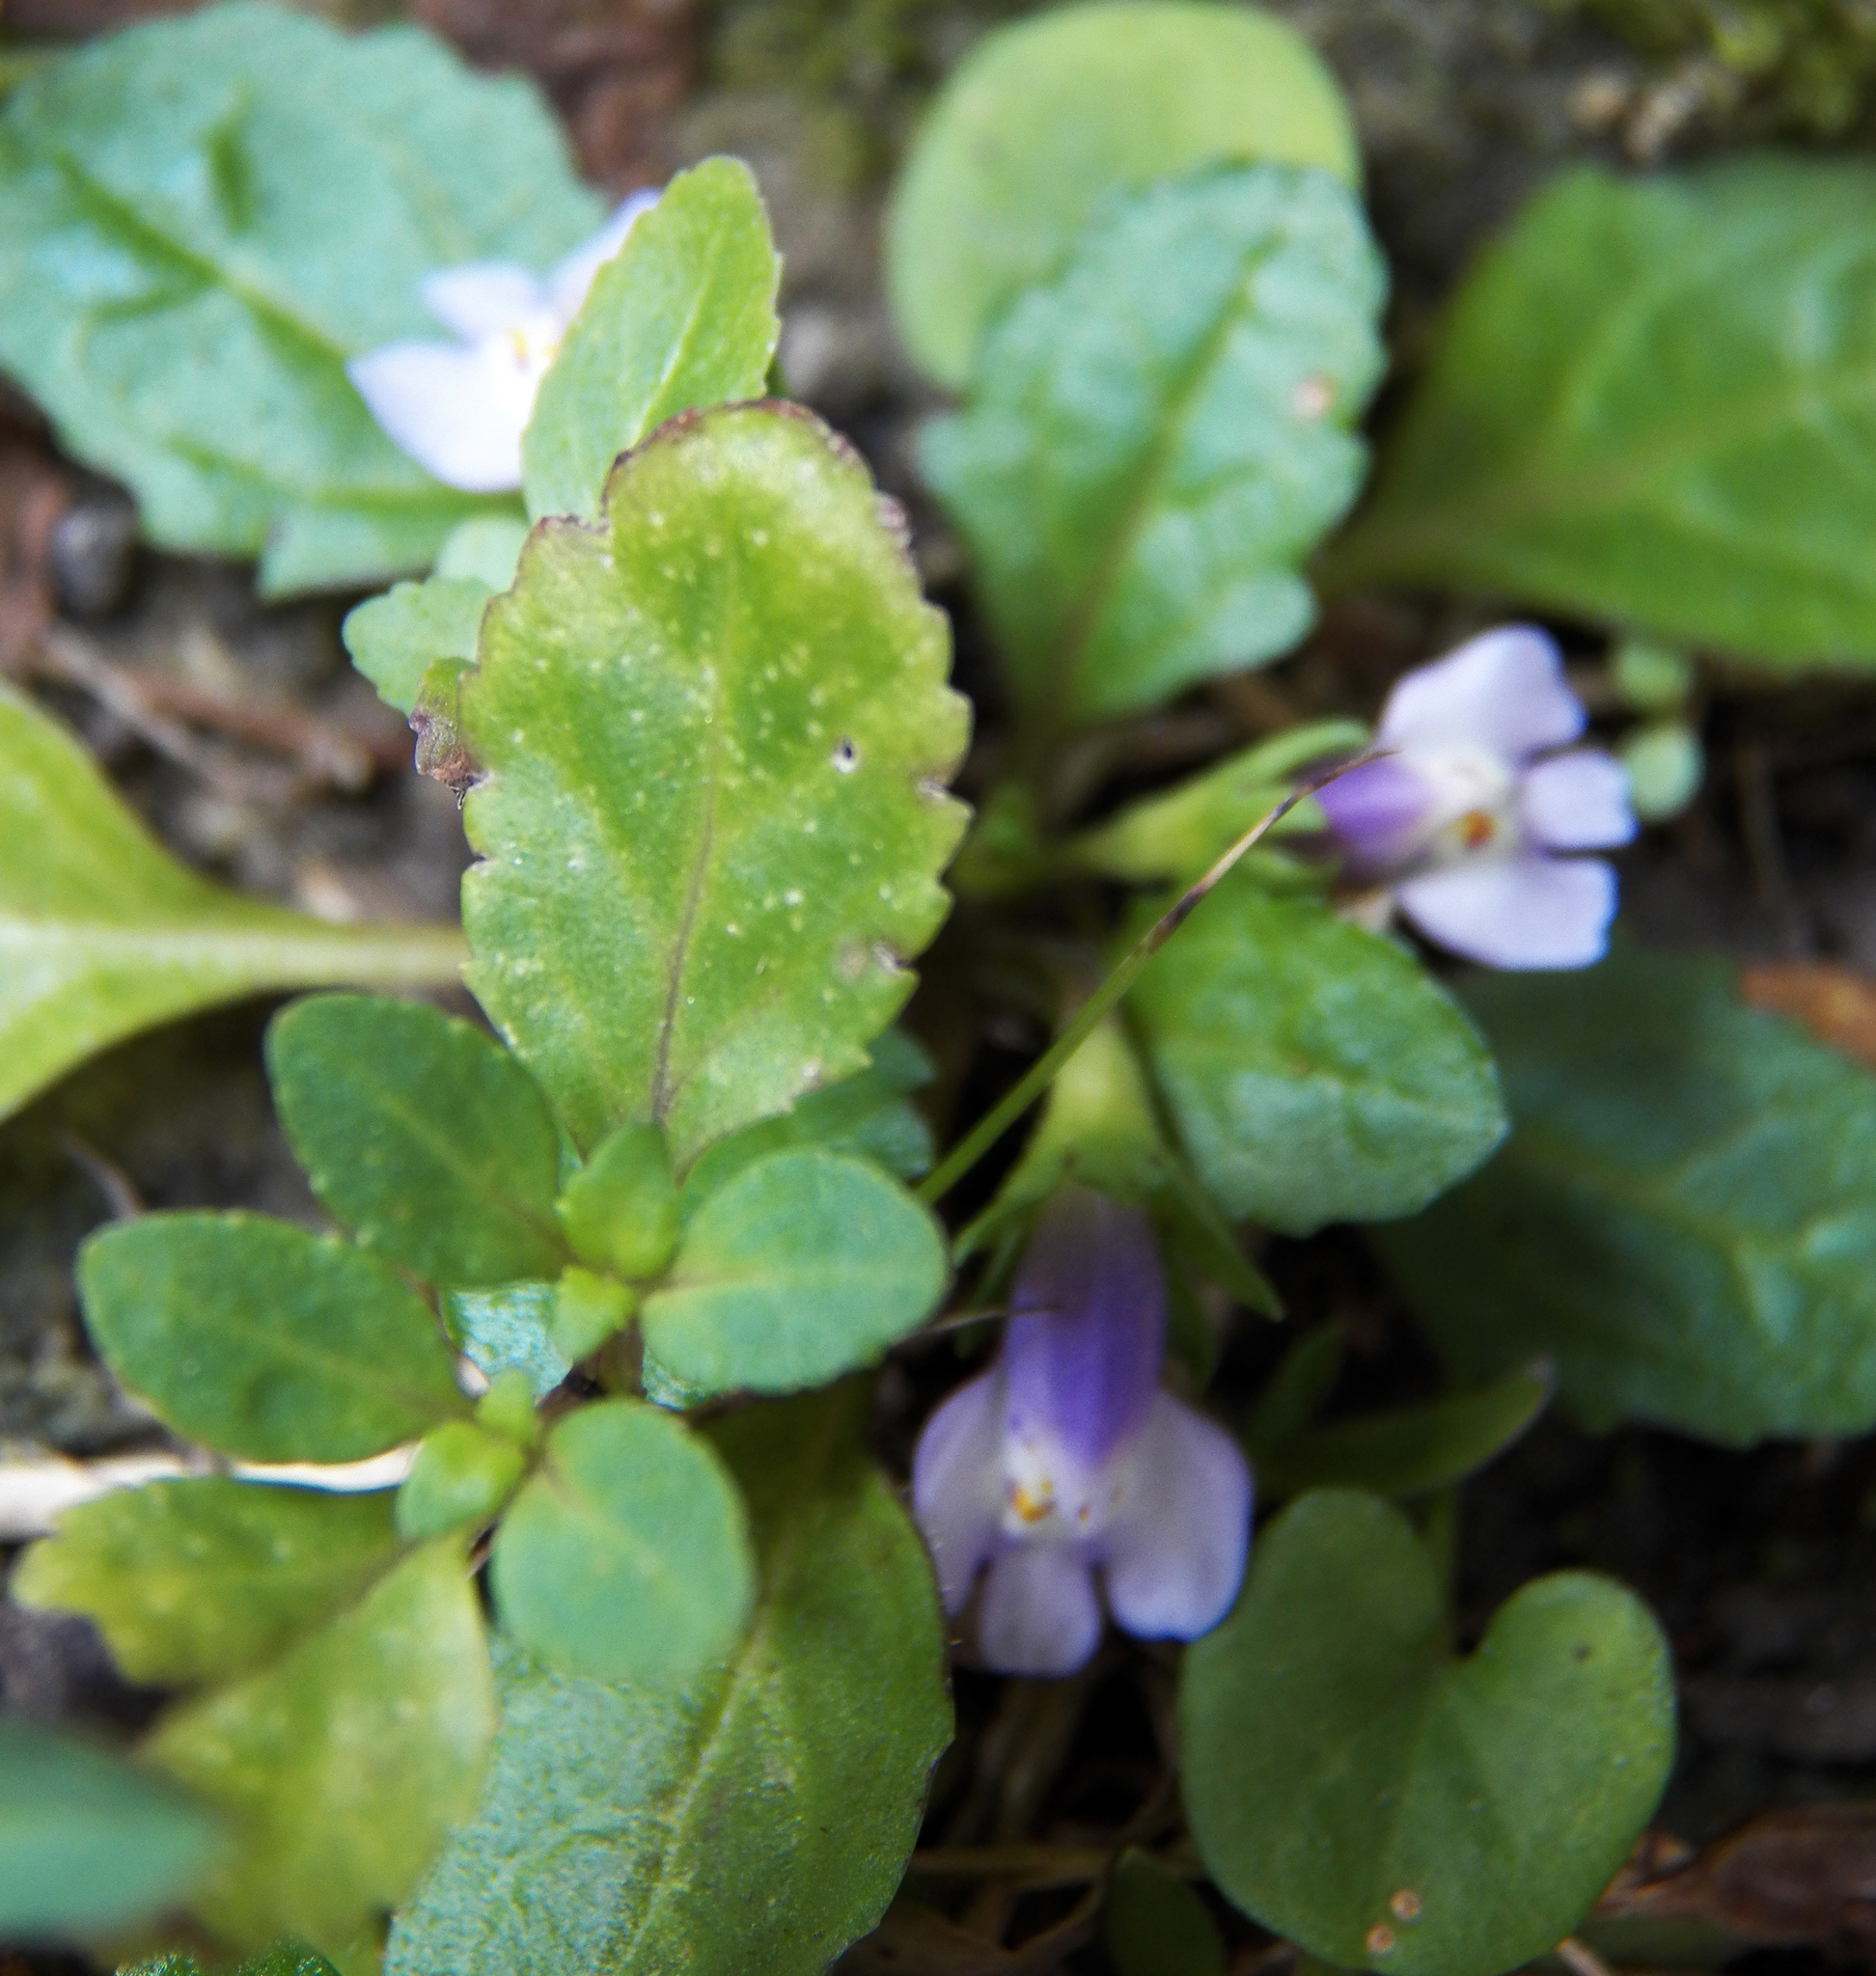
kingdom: Plantae
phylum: Tracheophyta
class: Magnoliopsida
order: Lamiales
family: Mazaceae
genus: Mazus
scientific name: Mazus pumilus
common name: Japanese mazus
